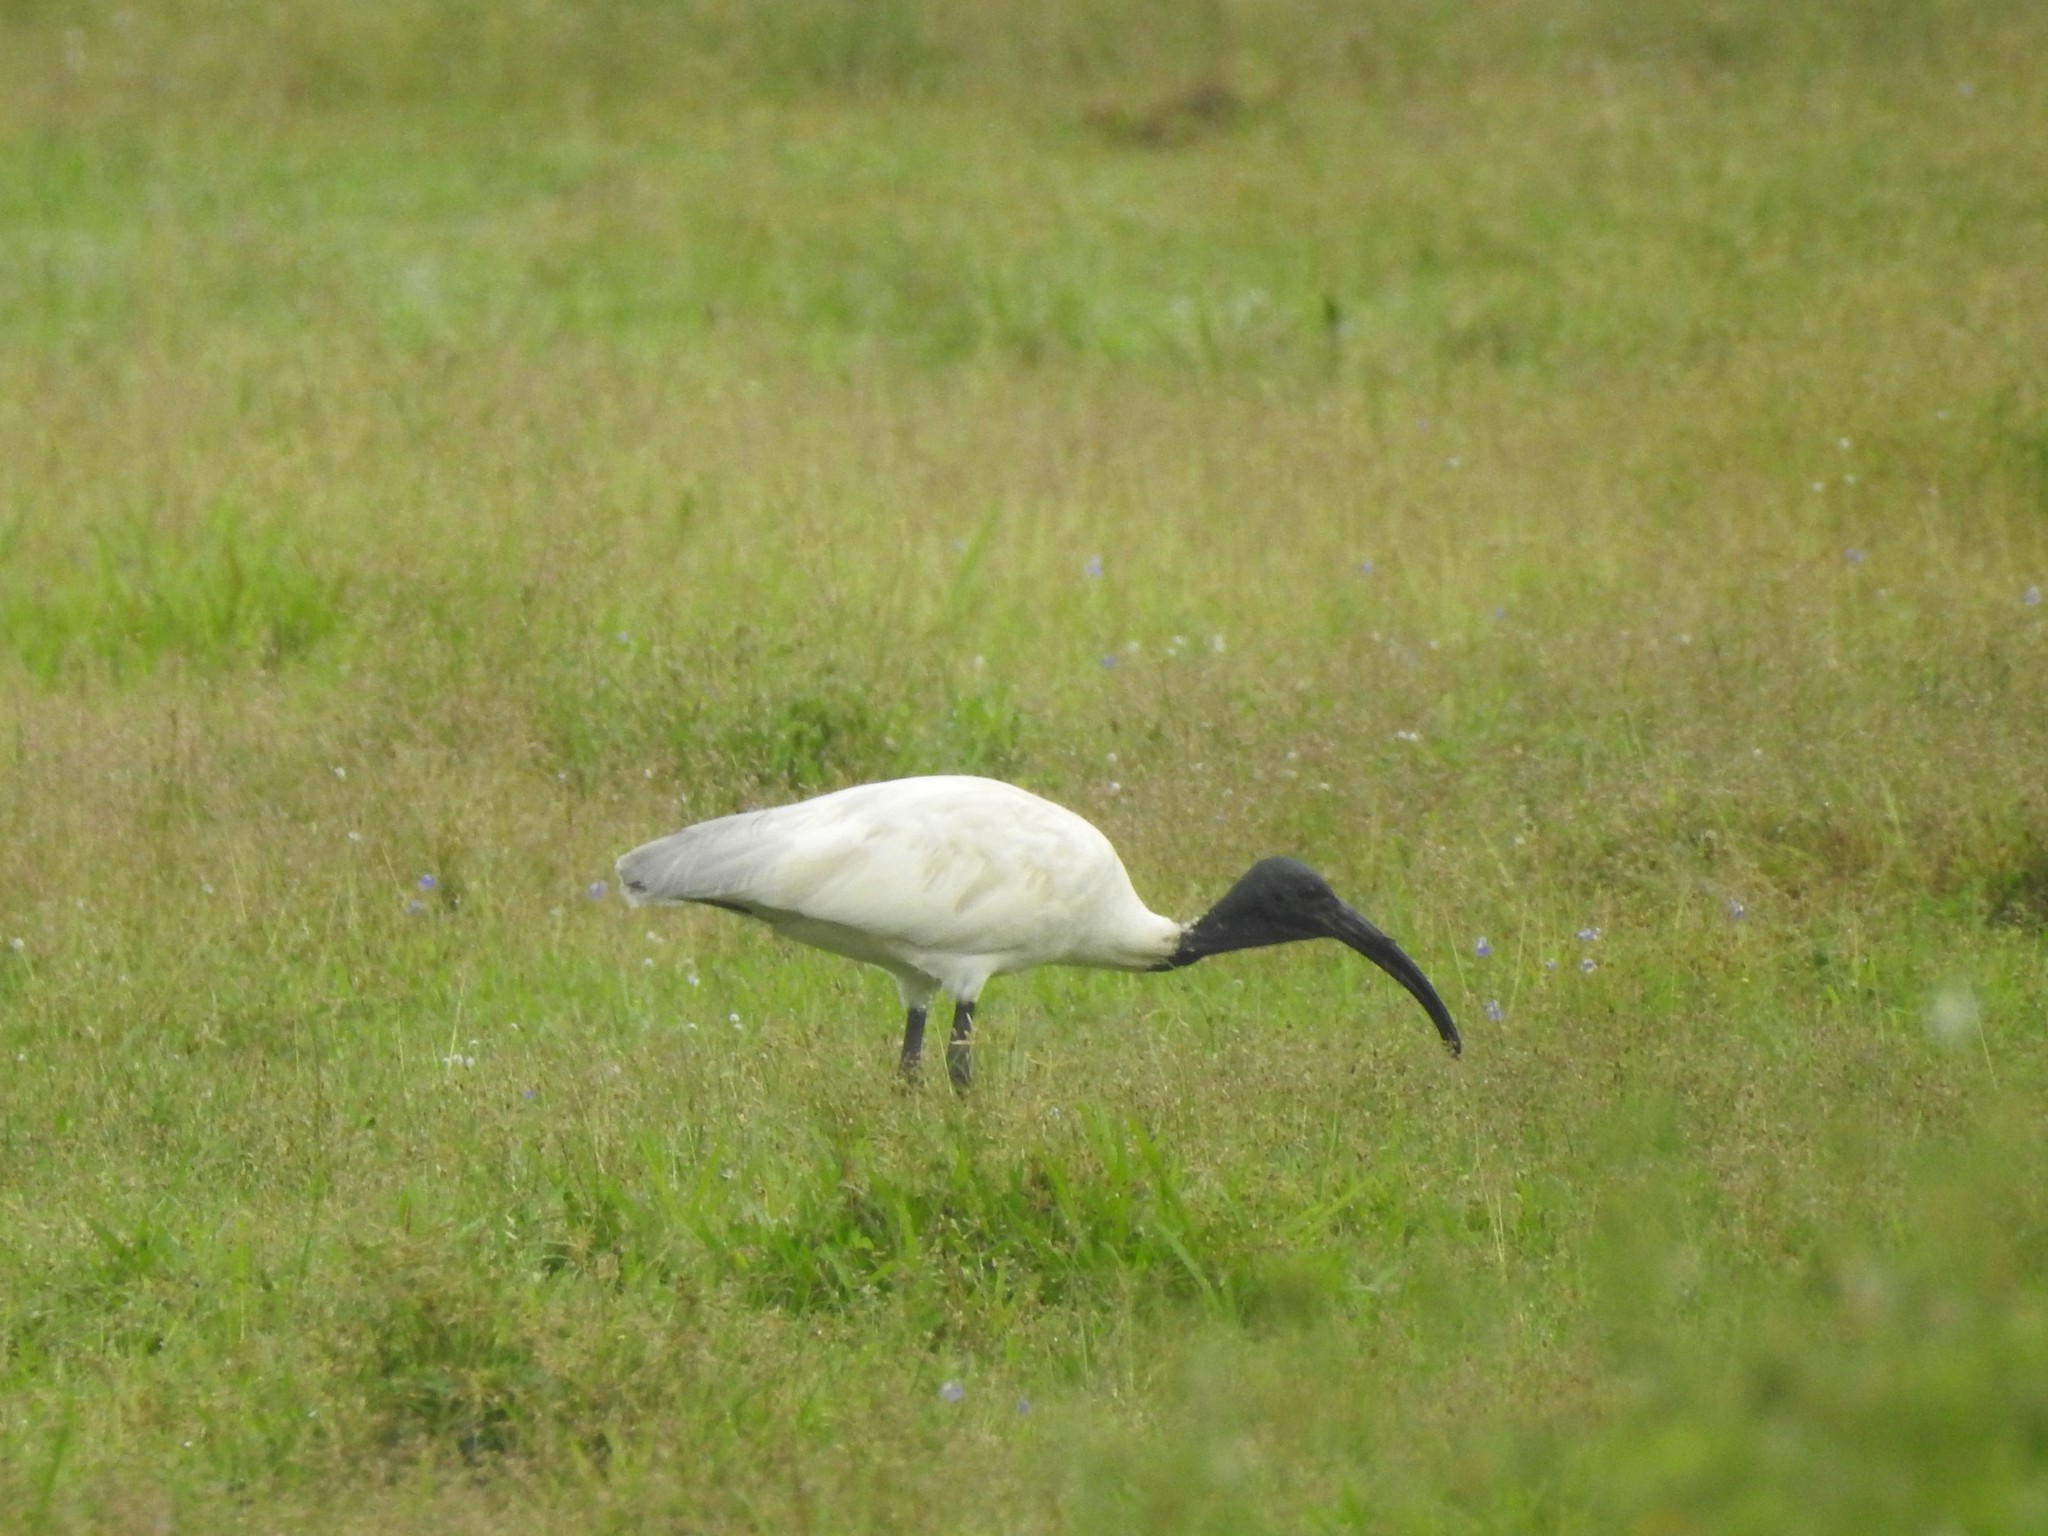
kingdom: Animalia
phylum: Chordata
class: Aves
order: Pelecaniformes
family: Threskiornithidae
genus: Threskiornis
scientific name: Threskiornis melanocephalus
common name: Black-headed ibis
